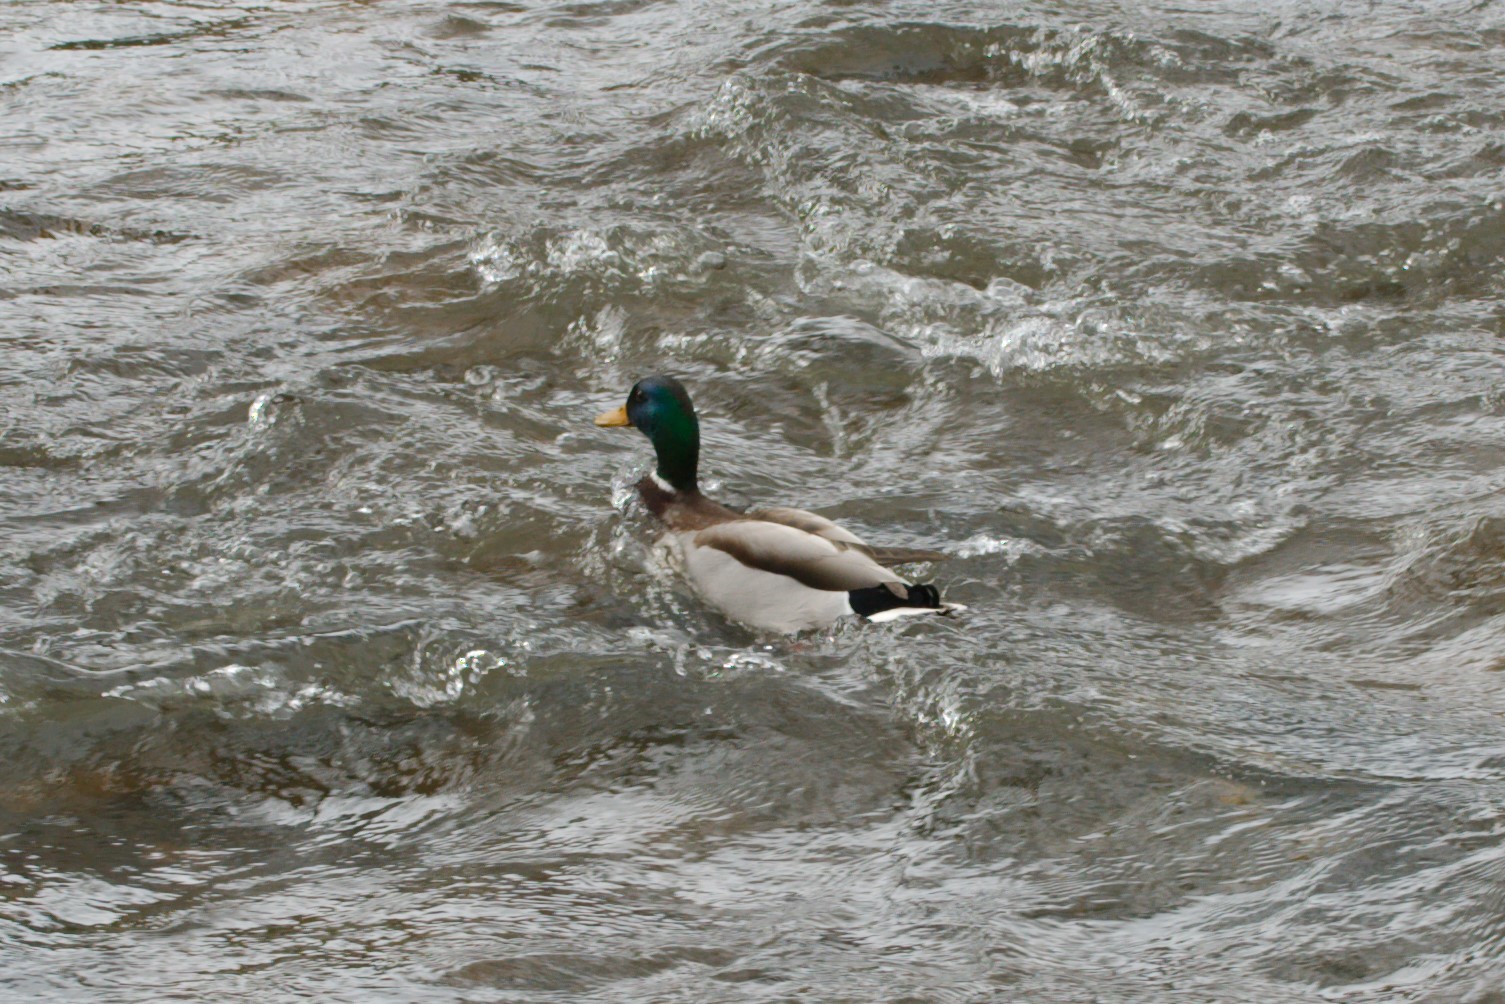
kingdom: Animalia
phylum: Chordata
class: Aves
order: Anseriformes
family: Anatidae
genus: Anas
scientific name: Anas platyrhynchos
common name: Mallard
